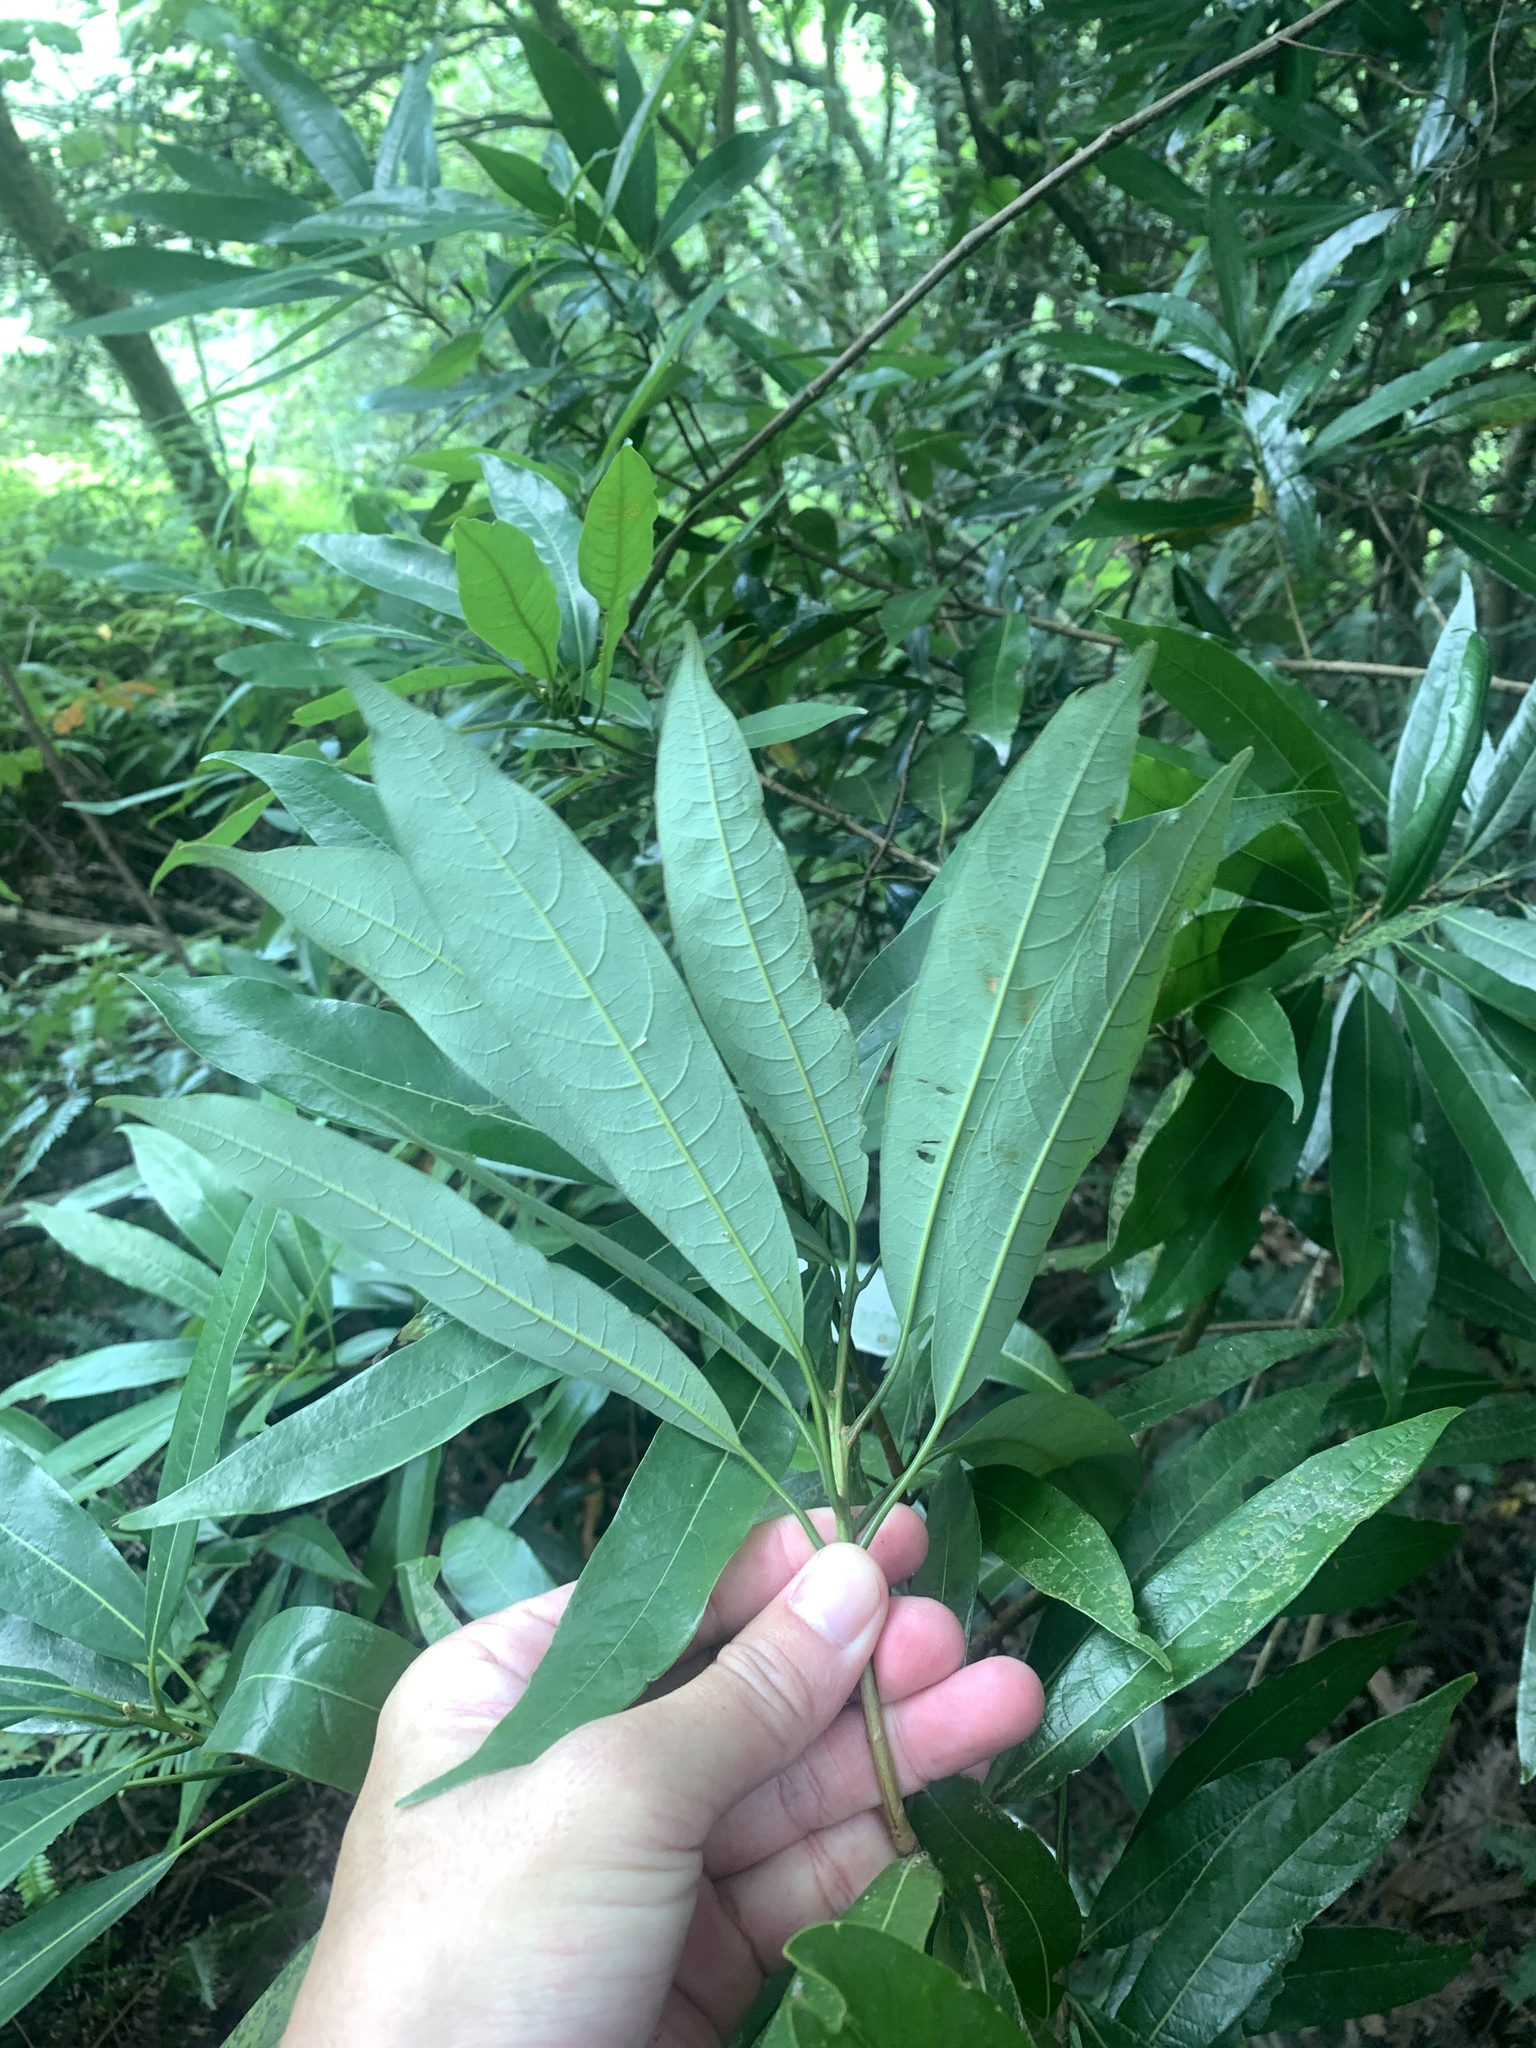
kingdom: Plantae
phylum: Tracheophyta
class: Magnoliopsida
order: Laurales
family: Lauraceae
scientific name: Lauraceae
